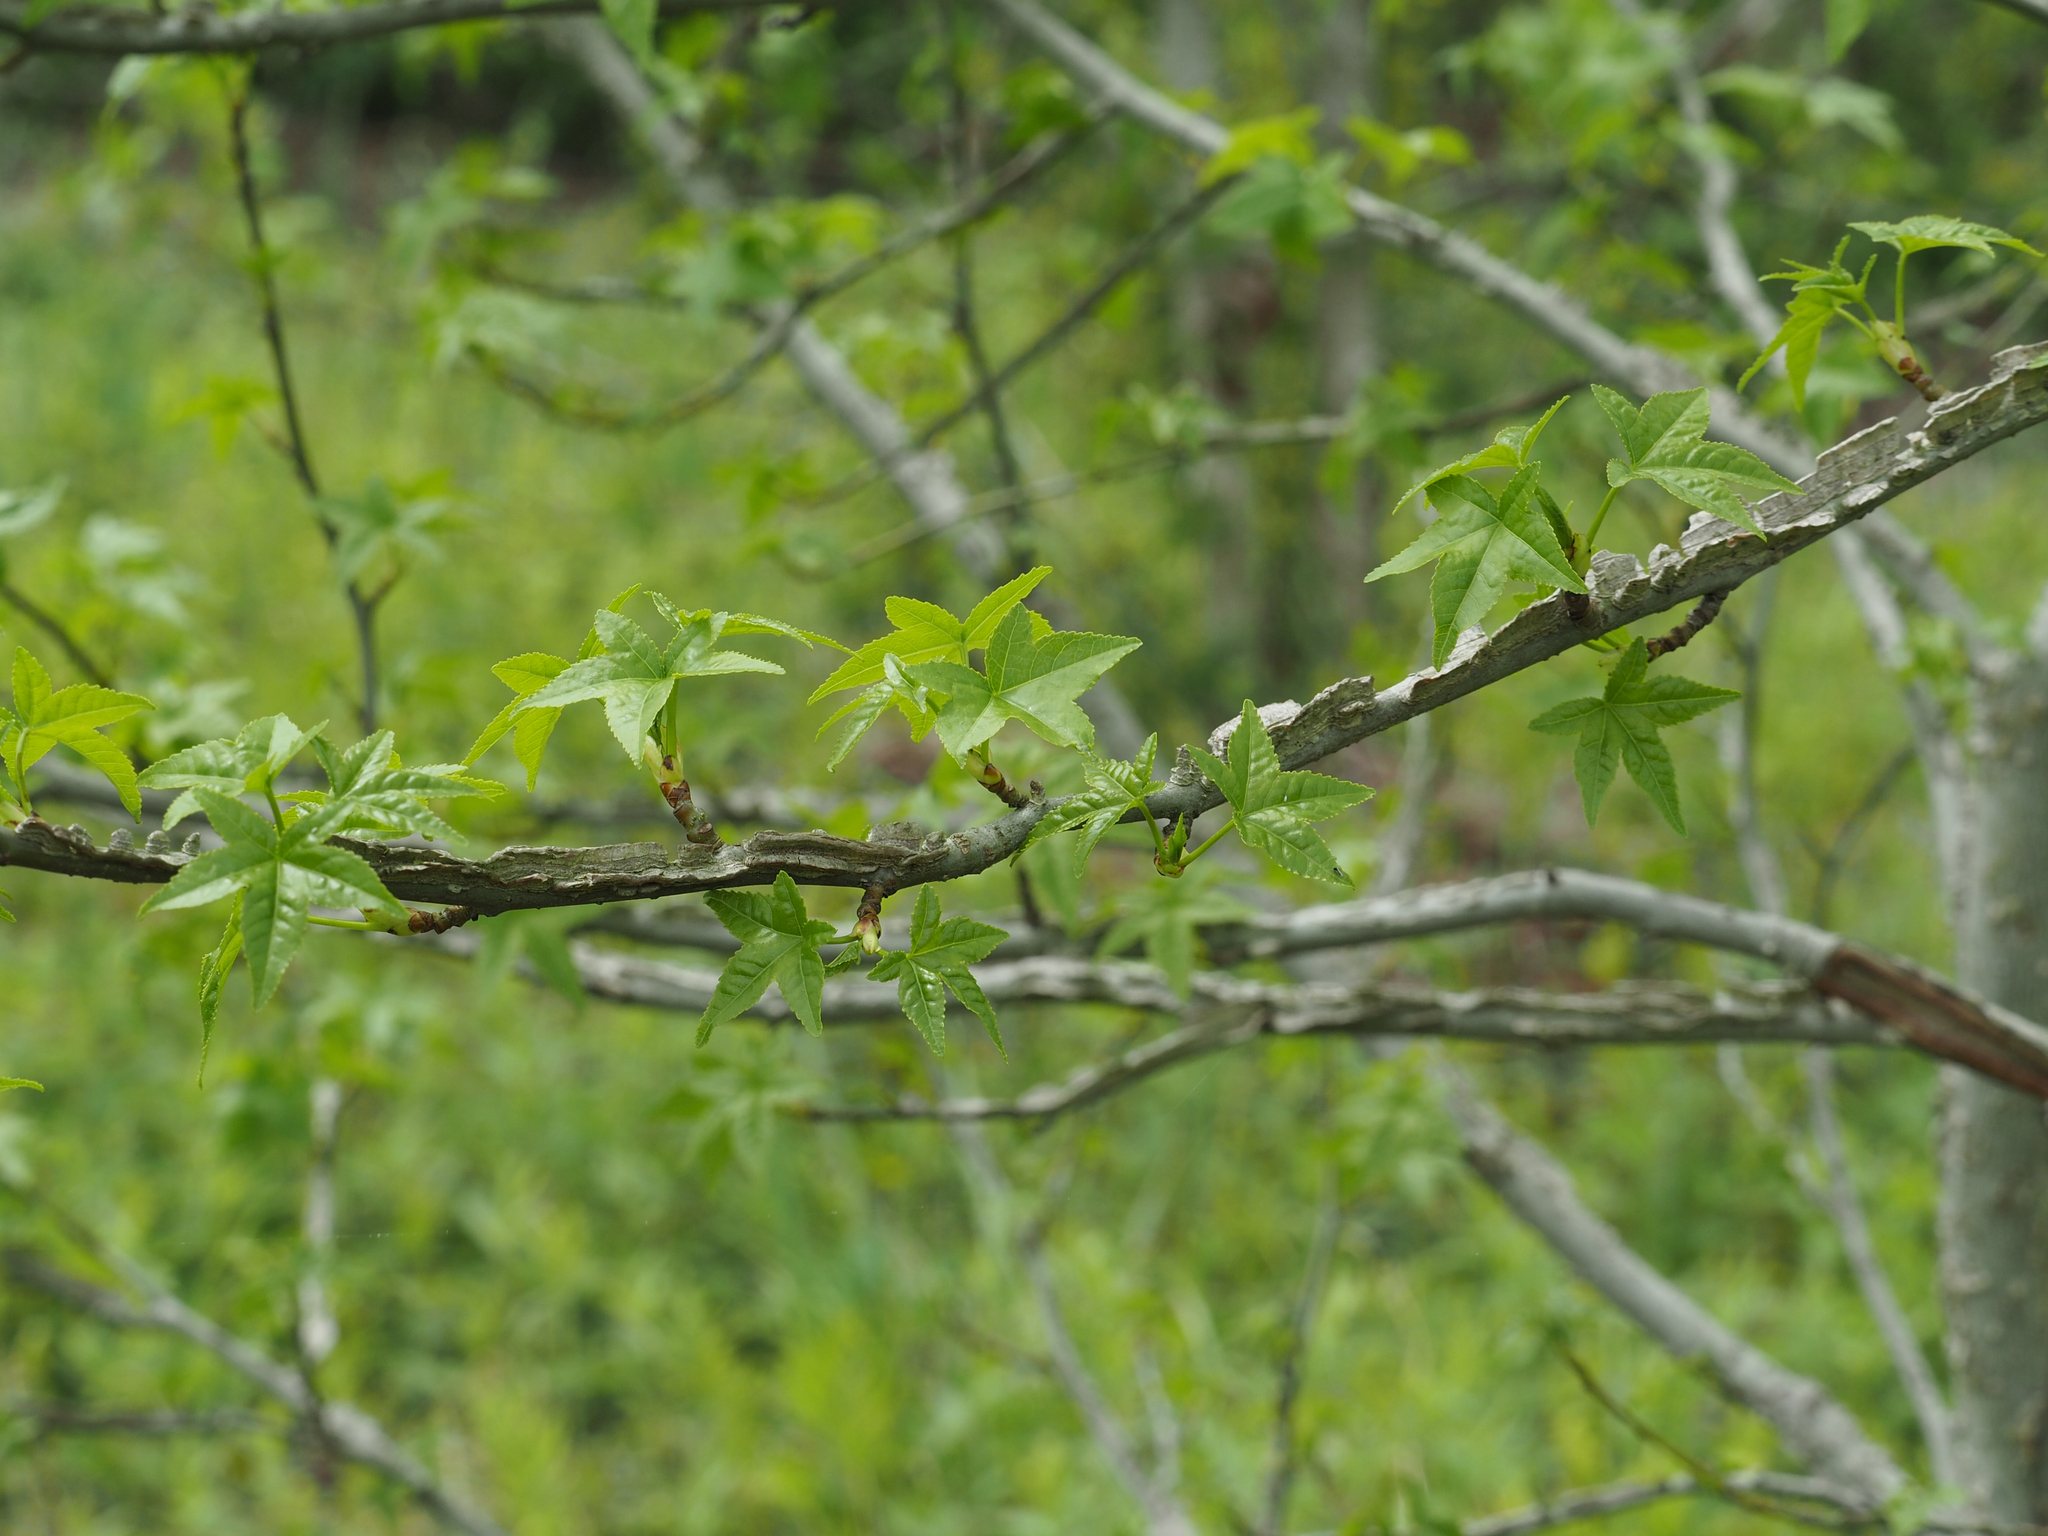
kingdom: Plantae
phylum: Tracheophyta
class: Magnoliopsida
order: Saxifragales
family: Altingiaceae
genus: Liquidambar
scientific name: Liquidambar styraciflua
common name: Sweet gum
